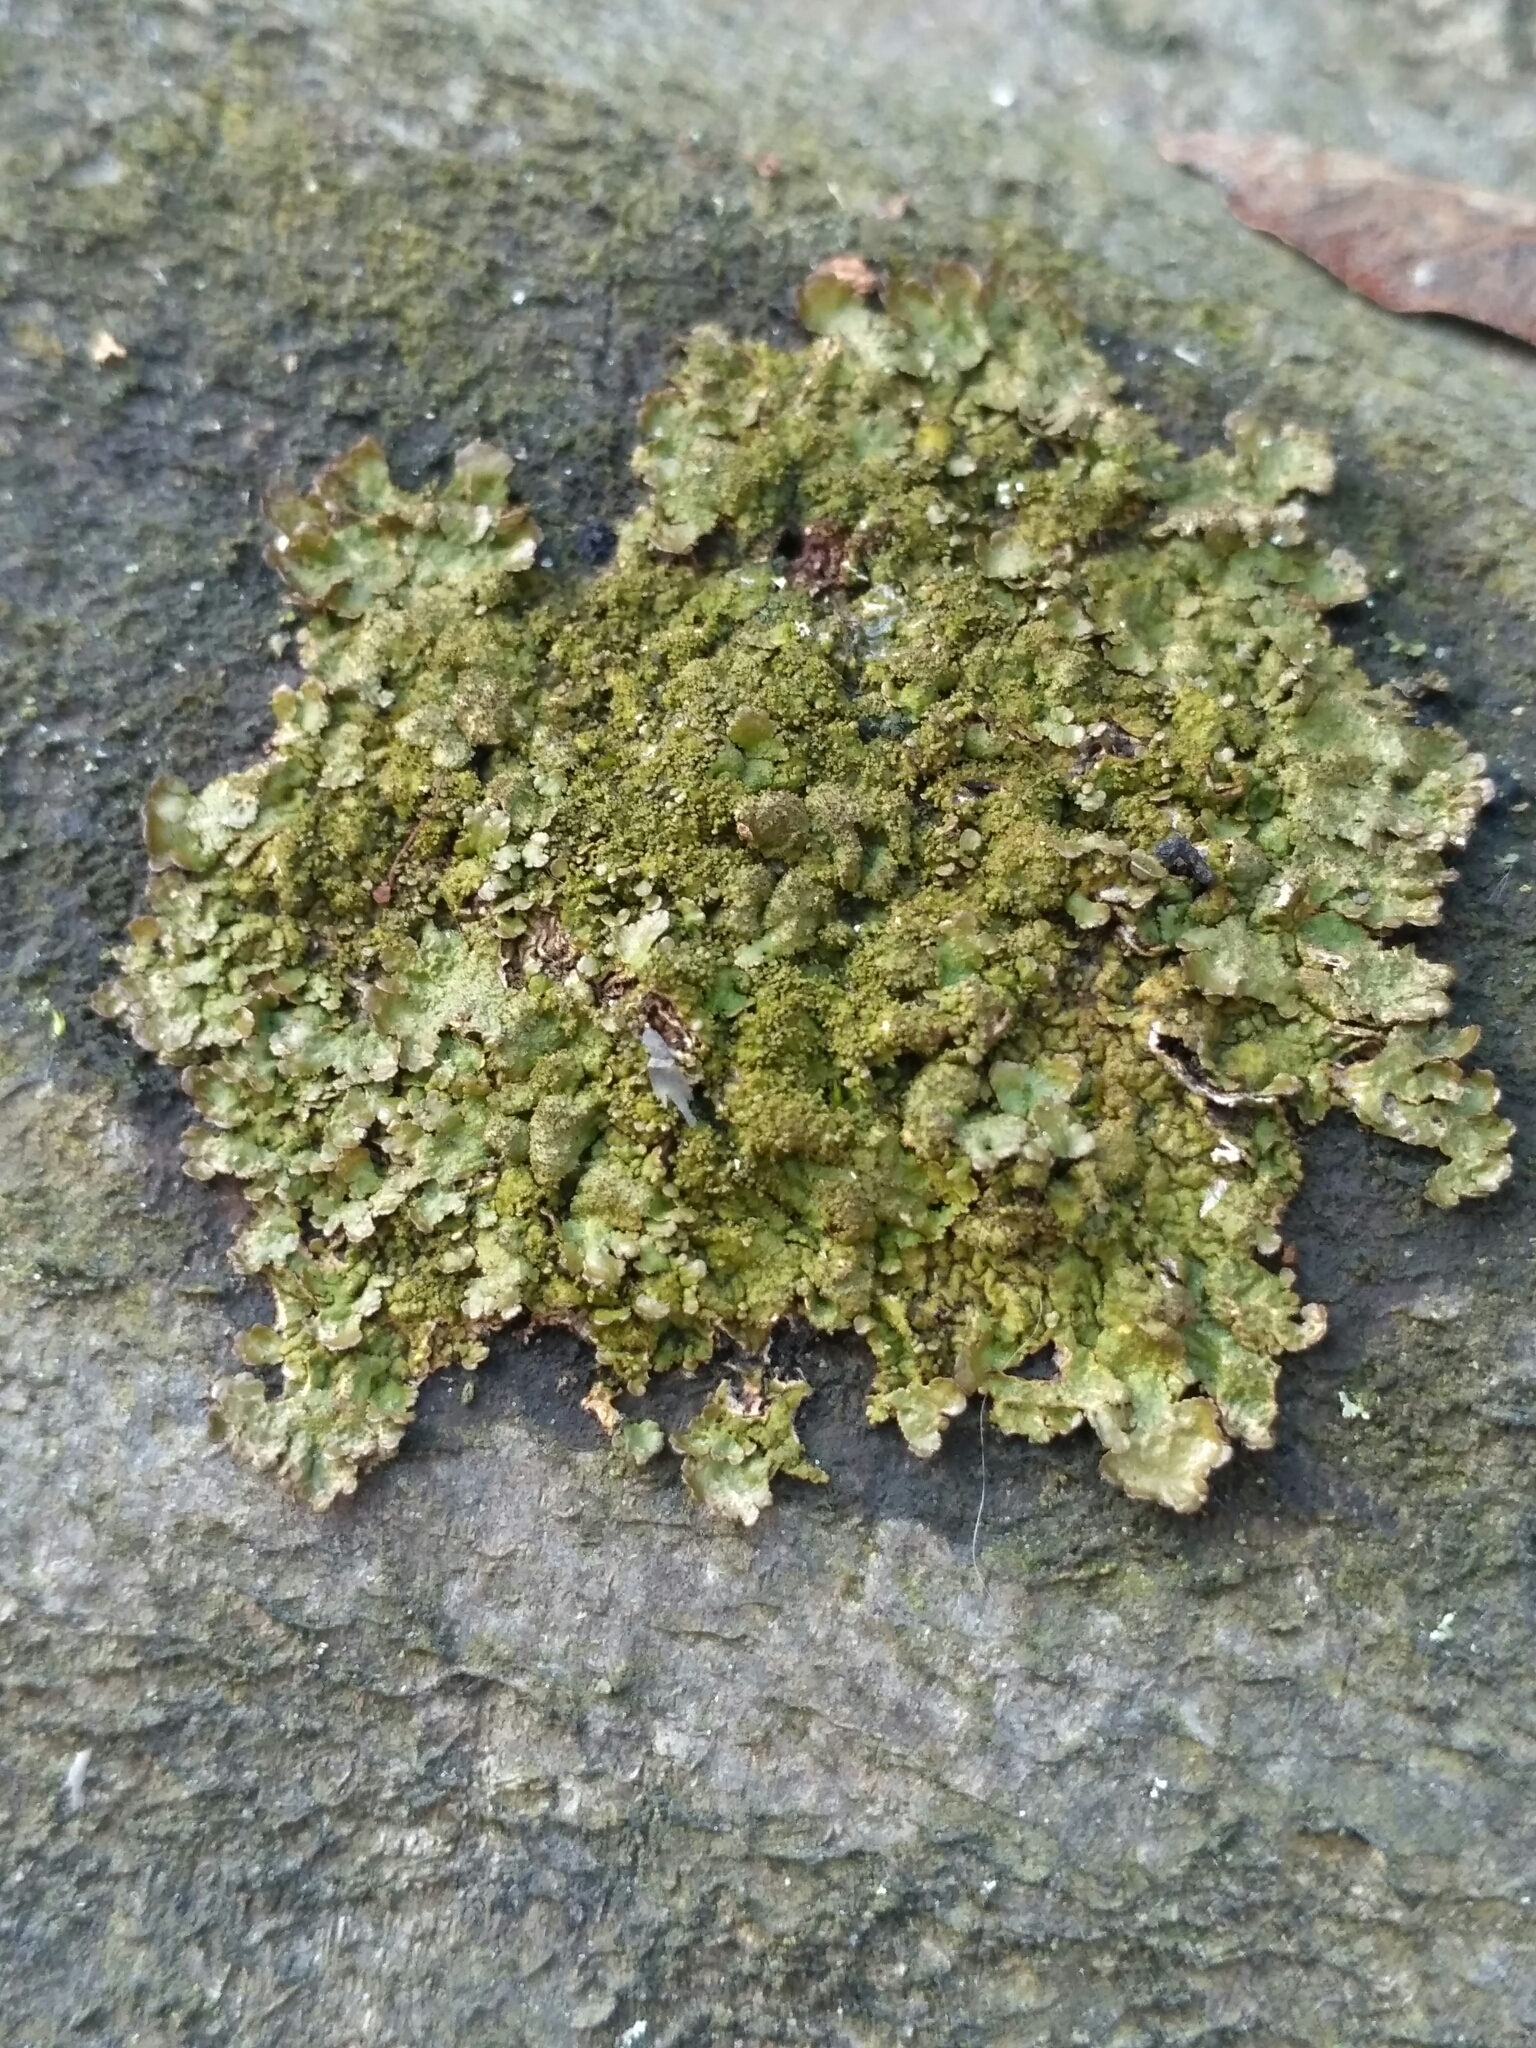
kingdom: Fungi
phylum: Ascomycota
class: Lecanoromycetes
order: Lecanorales
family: Parmeliaceae
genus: Melanelixia
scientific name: Melanelixia glabratula
